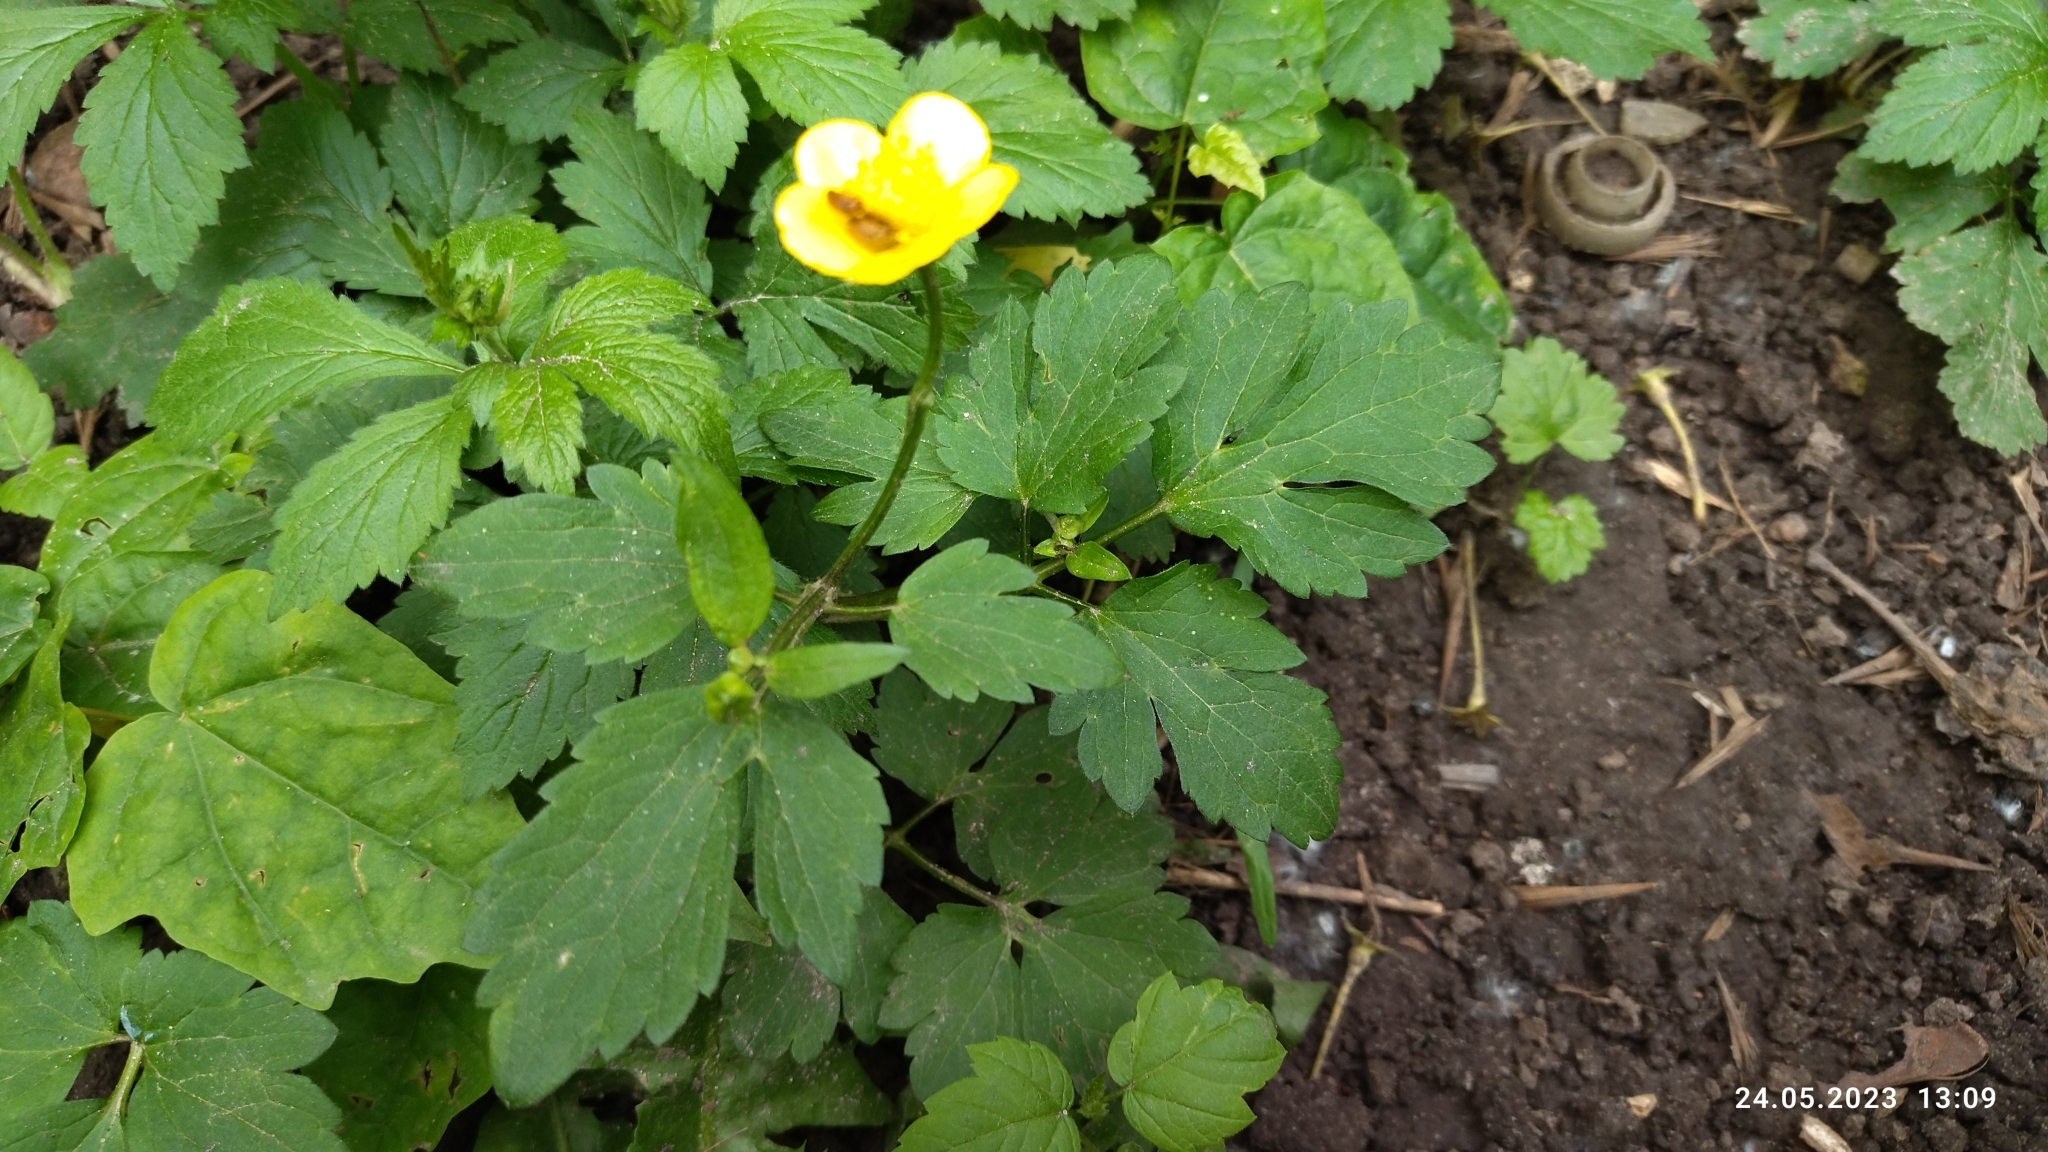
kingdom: Plantae
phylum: Tracheophyta
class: Magnoliopsida
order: Ranunculales
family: Ranunculaceae
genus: Ranunculus
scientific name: Ranunculus repens
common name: Creeping buttercup
